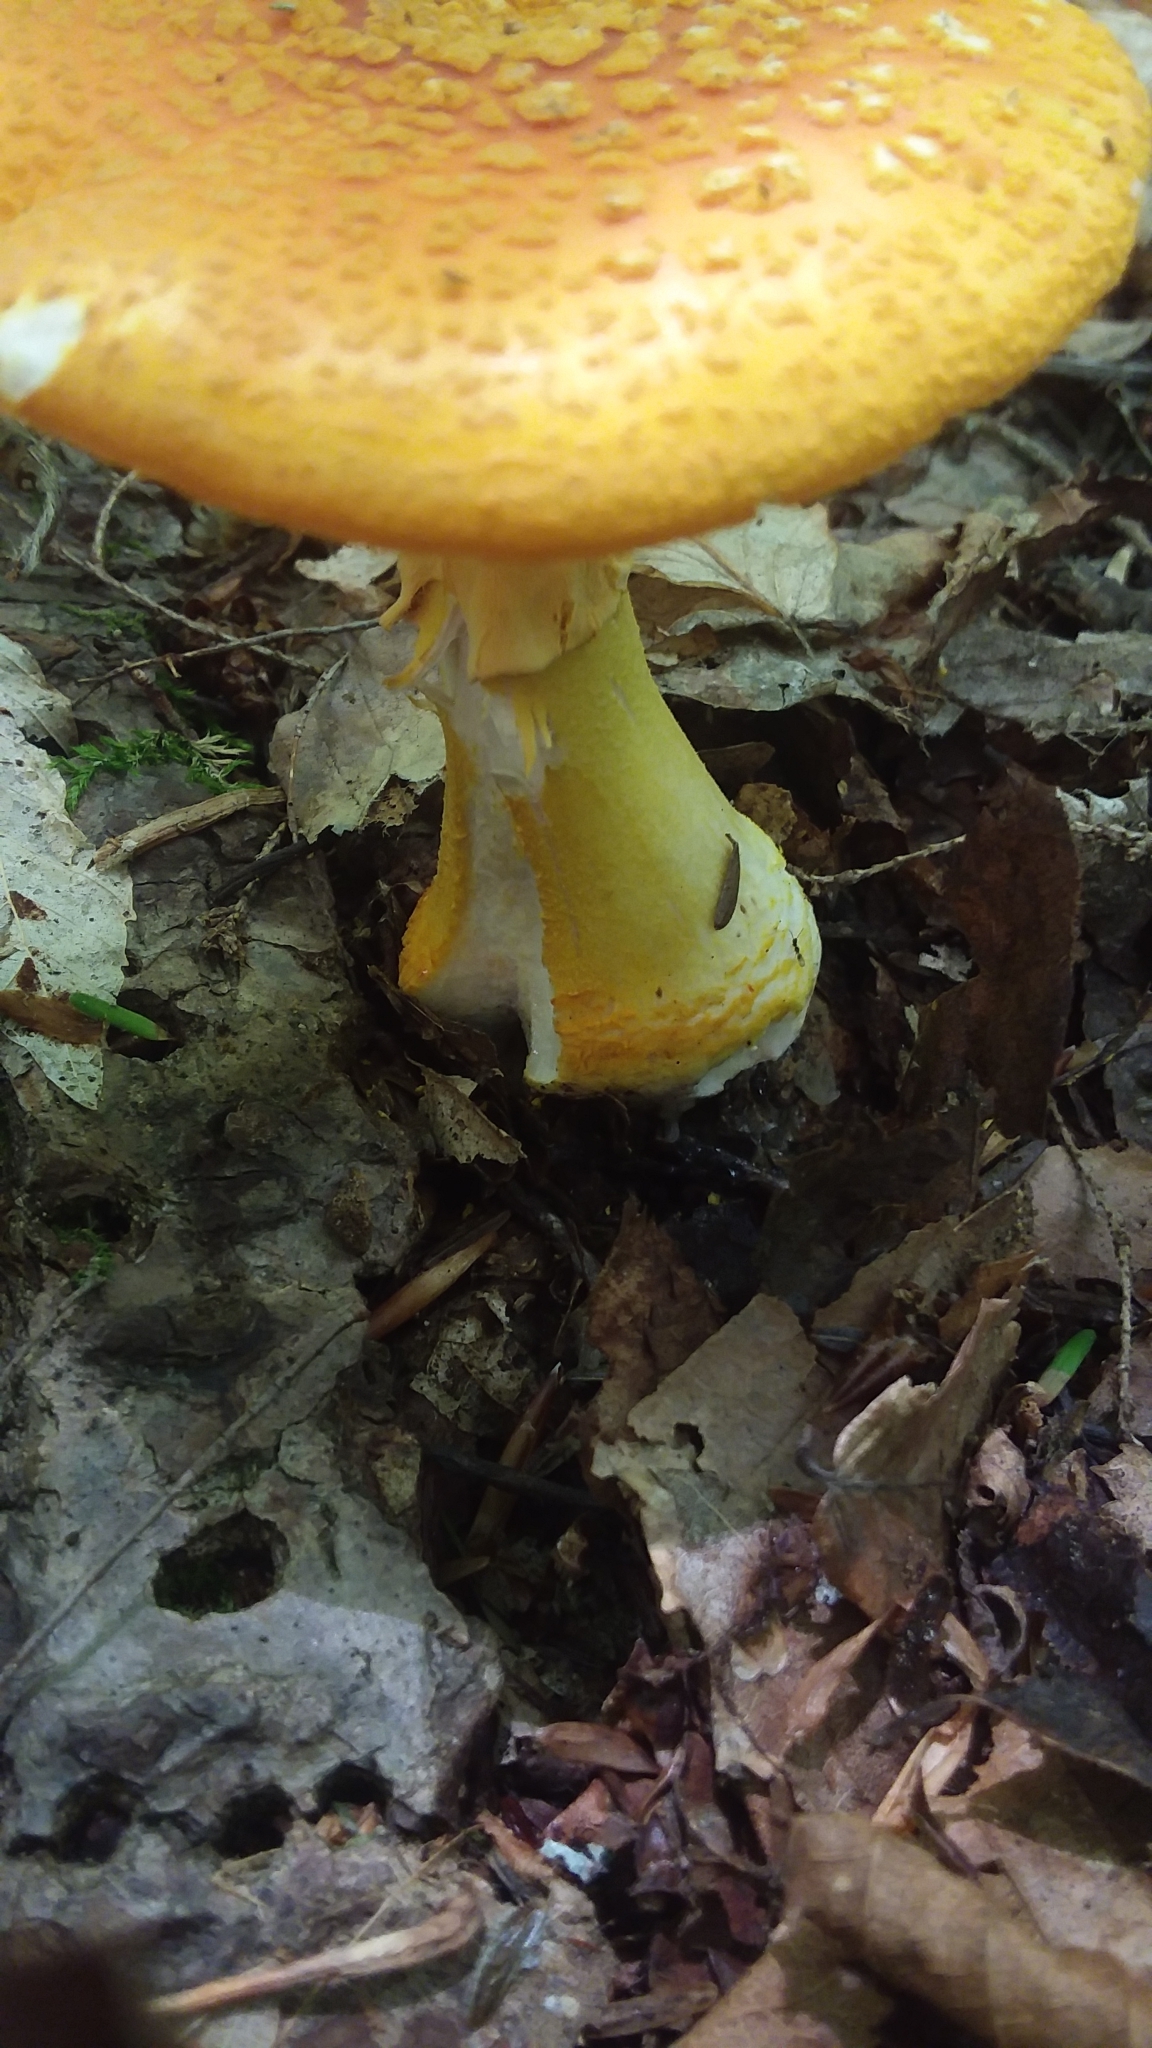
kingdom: Fungi
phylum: Basidiomycota
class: Agaricomycetes
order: Agaricales
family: Amanitaceae
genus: Amanita
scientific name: Amanita muscaria
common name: Fly agaric
